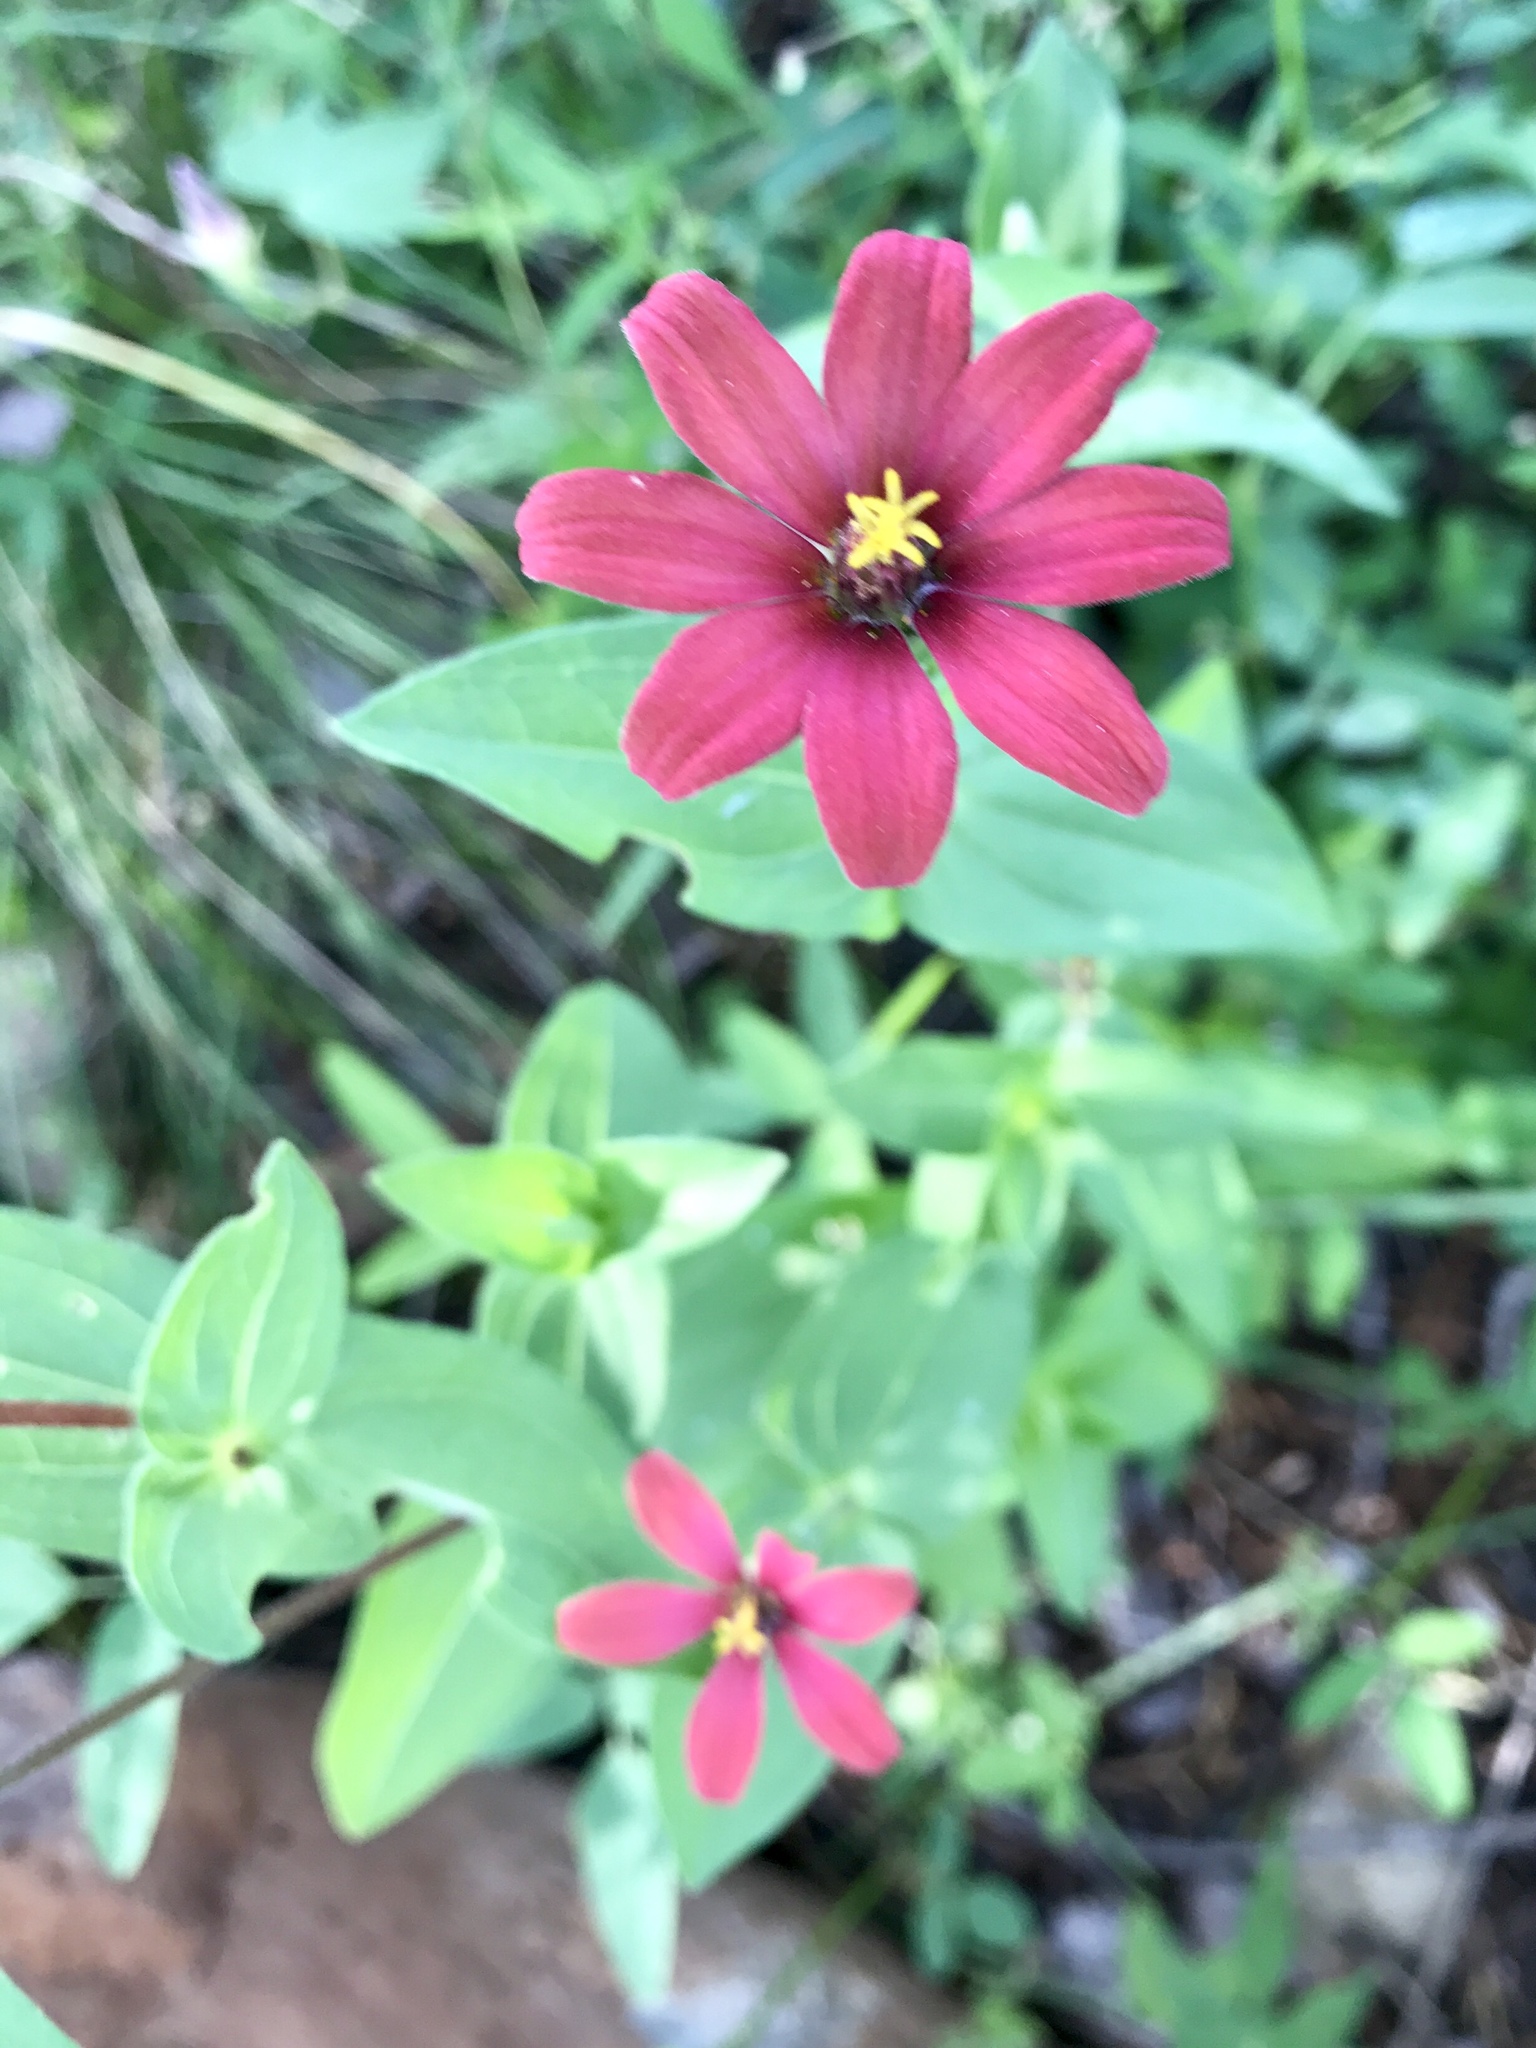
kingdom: Plantae
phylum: Tracheophyta
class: Magnoliopsida
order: Asterales
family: Asteraceae
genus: Zinnia
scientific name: Zinnia peruviana
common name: Peruvian zinnia
